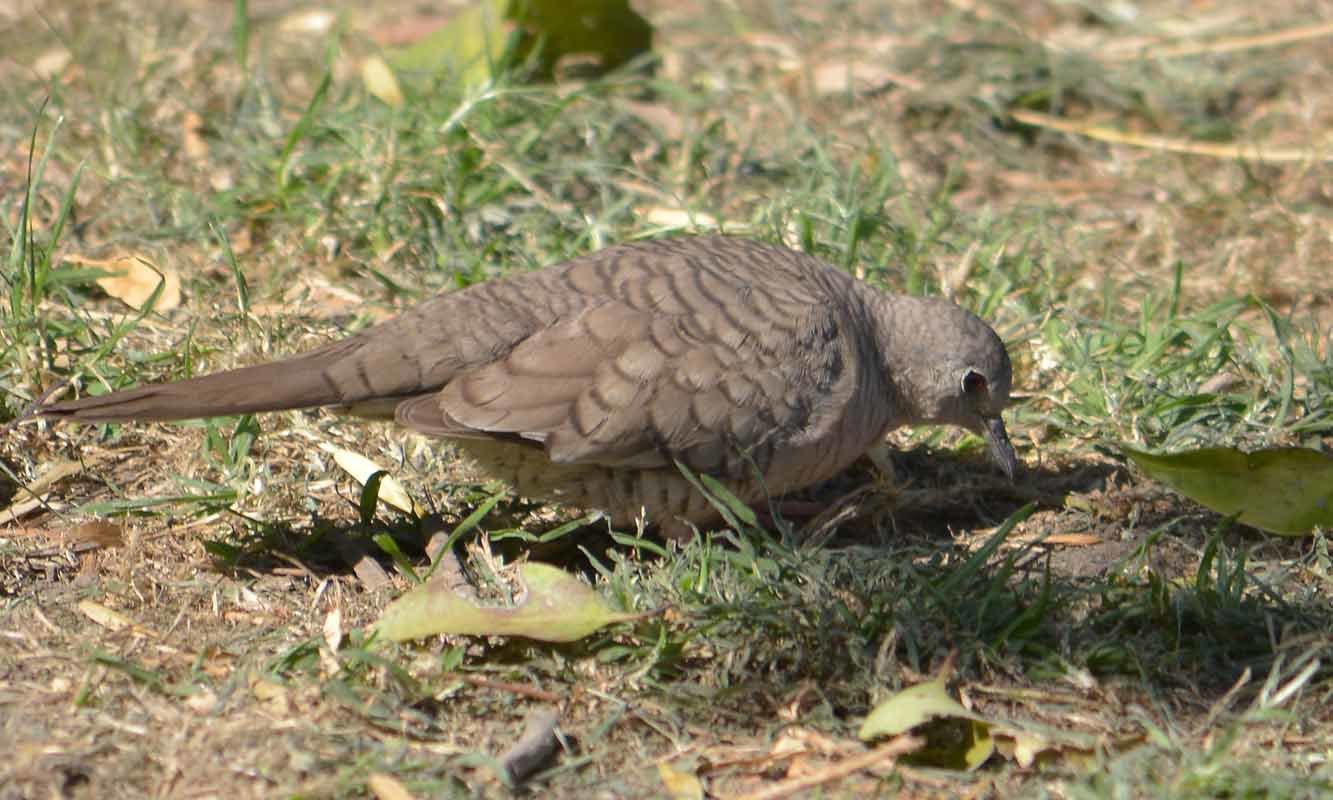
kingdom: Animalia
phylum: Chordata
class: Aves
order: Columbiformes
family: Columbidae
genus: Columbina
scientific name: Columbina inca
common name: Inca dove
